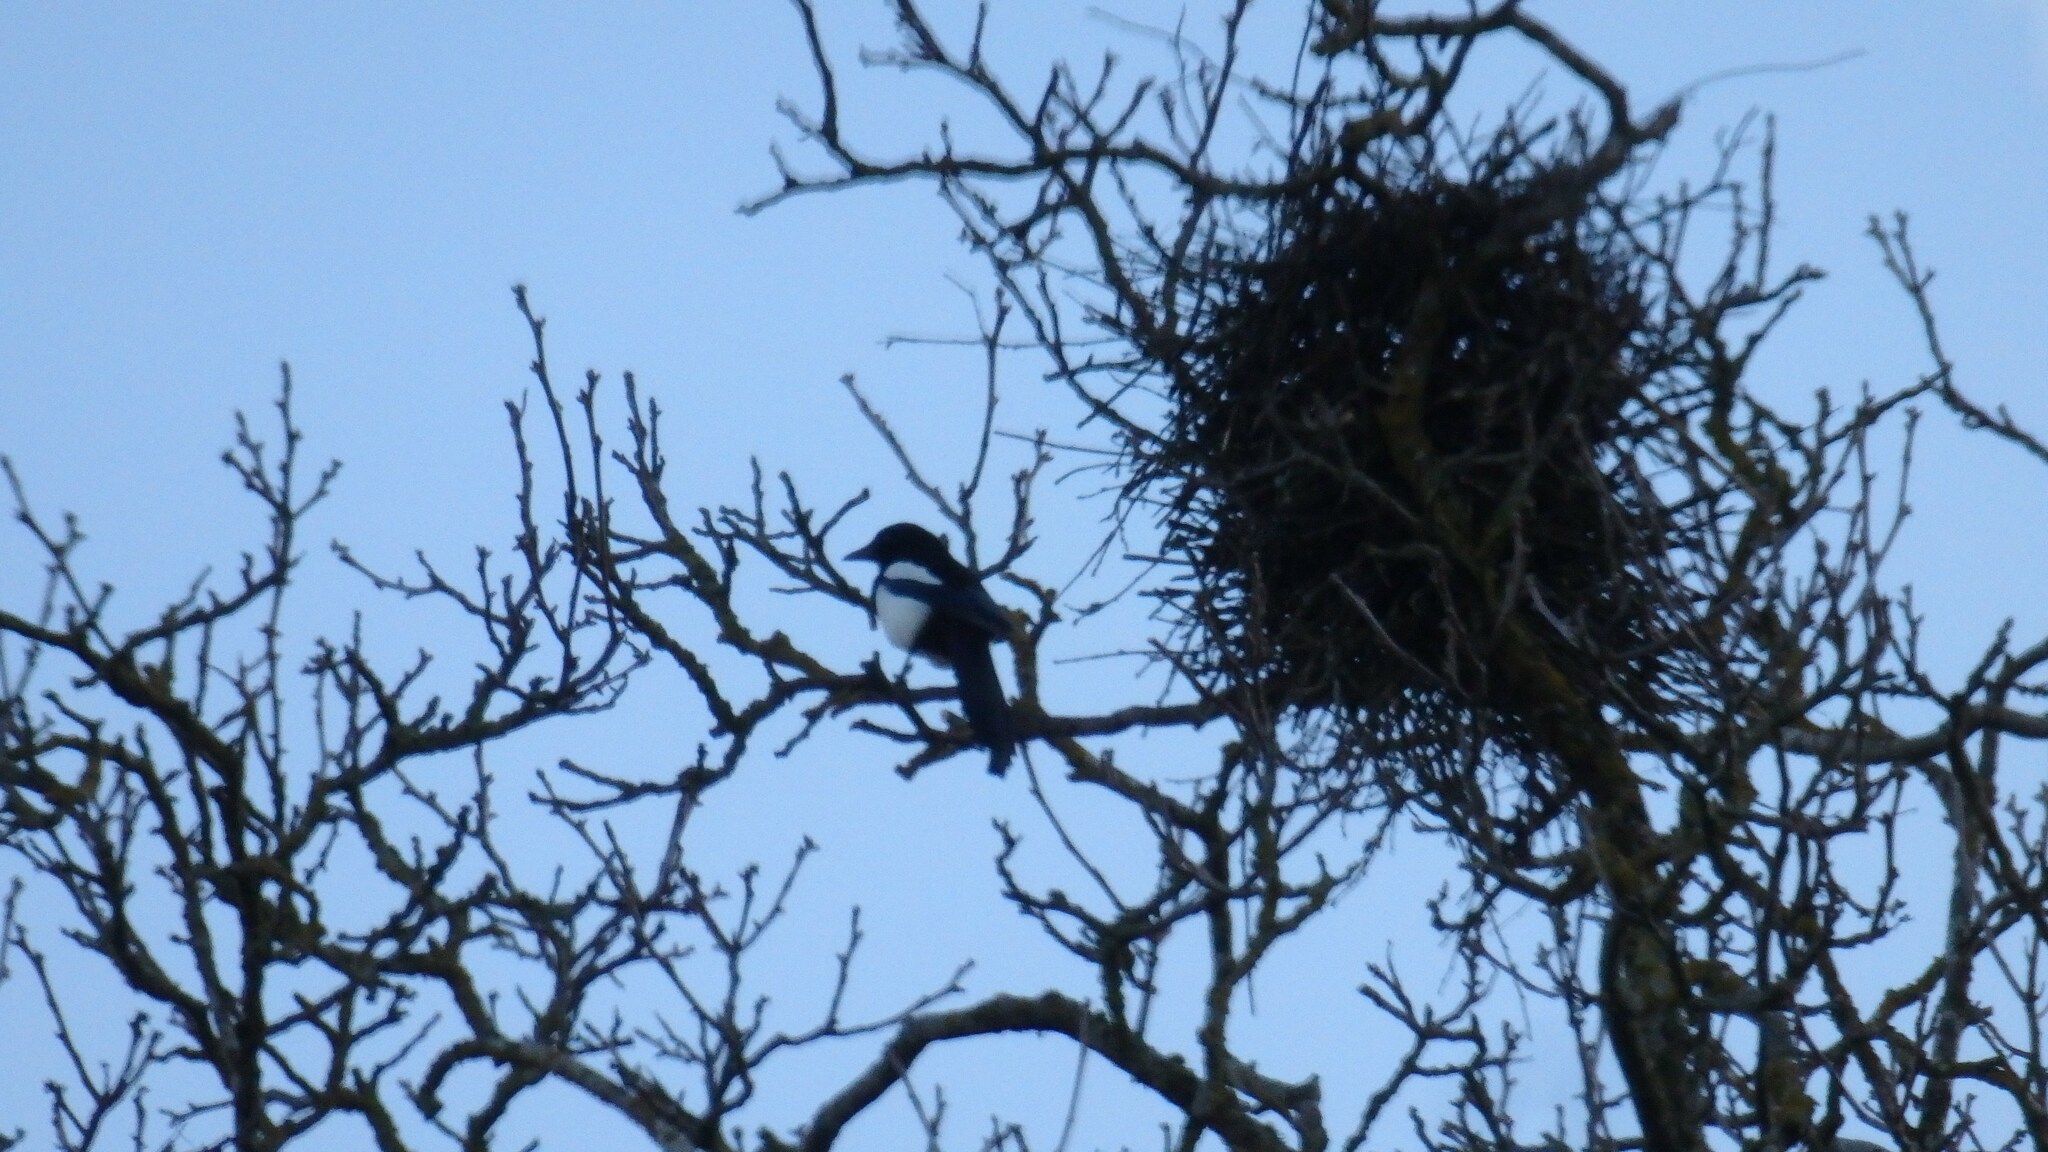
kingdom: Animalia
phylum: Chordata
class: Aves
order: Passeriformes
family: Corvidae
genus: Pica
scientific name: Pica pica
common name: Eurasian magpie
